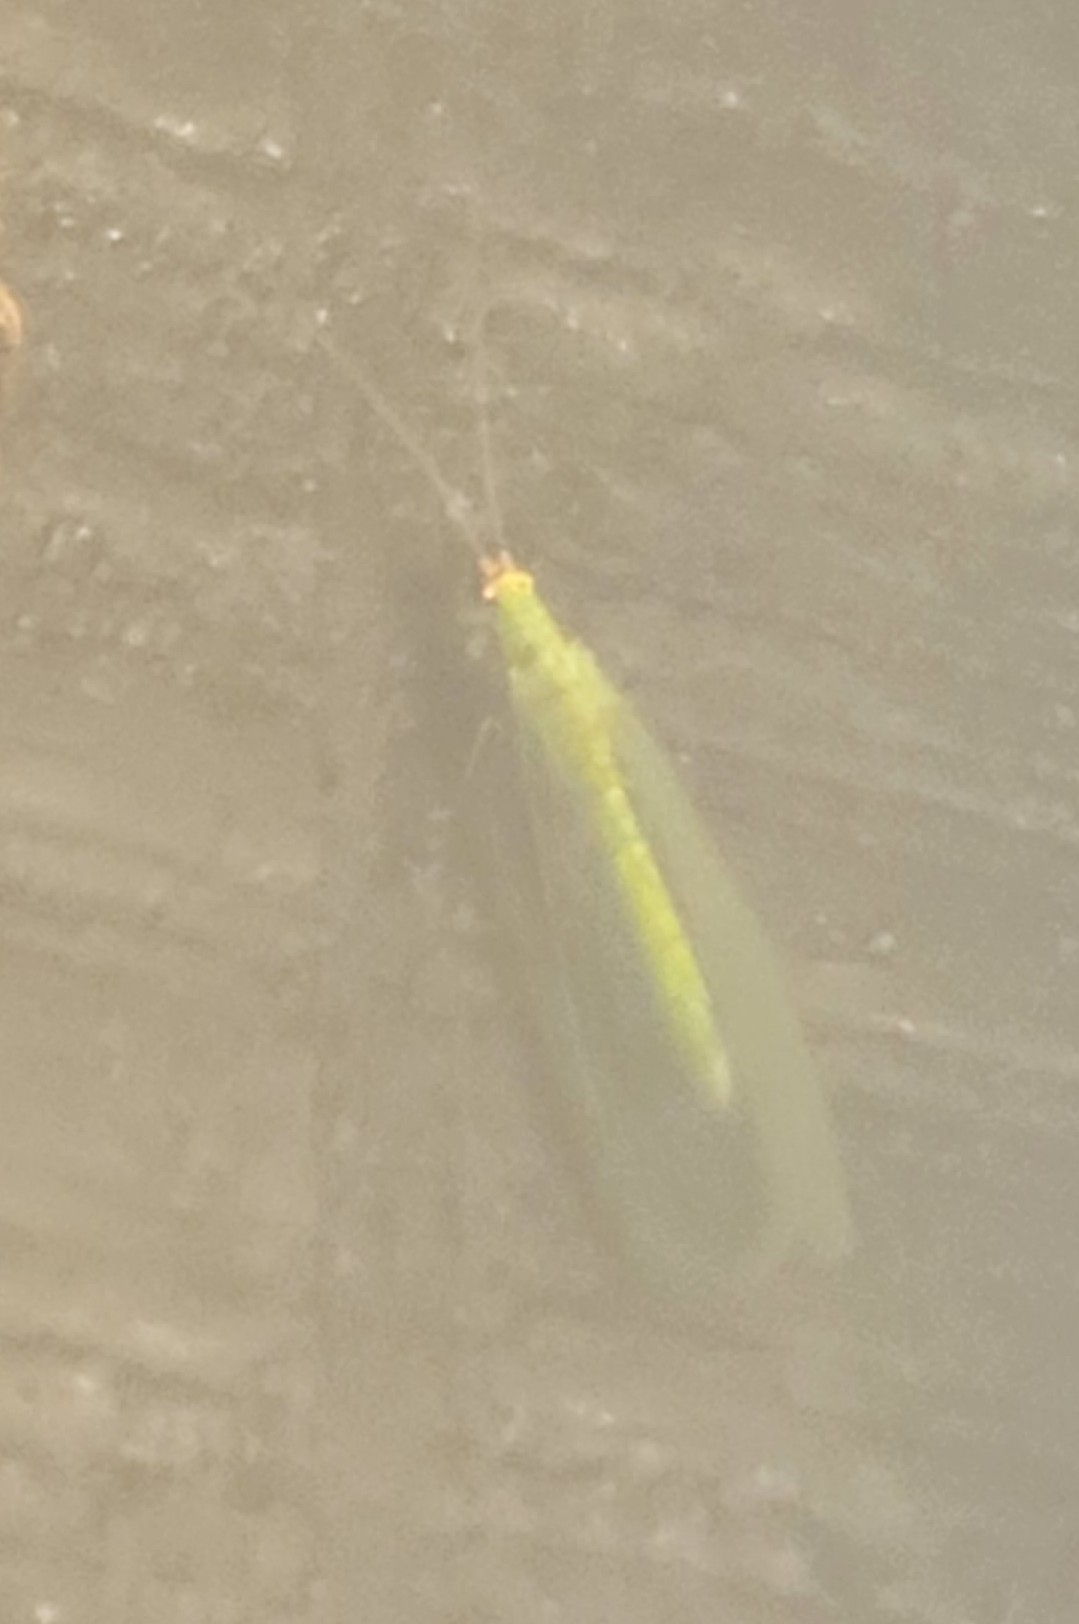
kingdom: Animalia
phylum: Arthropoda
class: Insecta
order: Neuroptera
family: Chrysopidae
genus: Chrysopa
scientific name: Chrysopa oculata
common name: Golden-eyed lacewing
